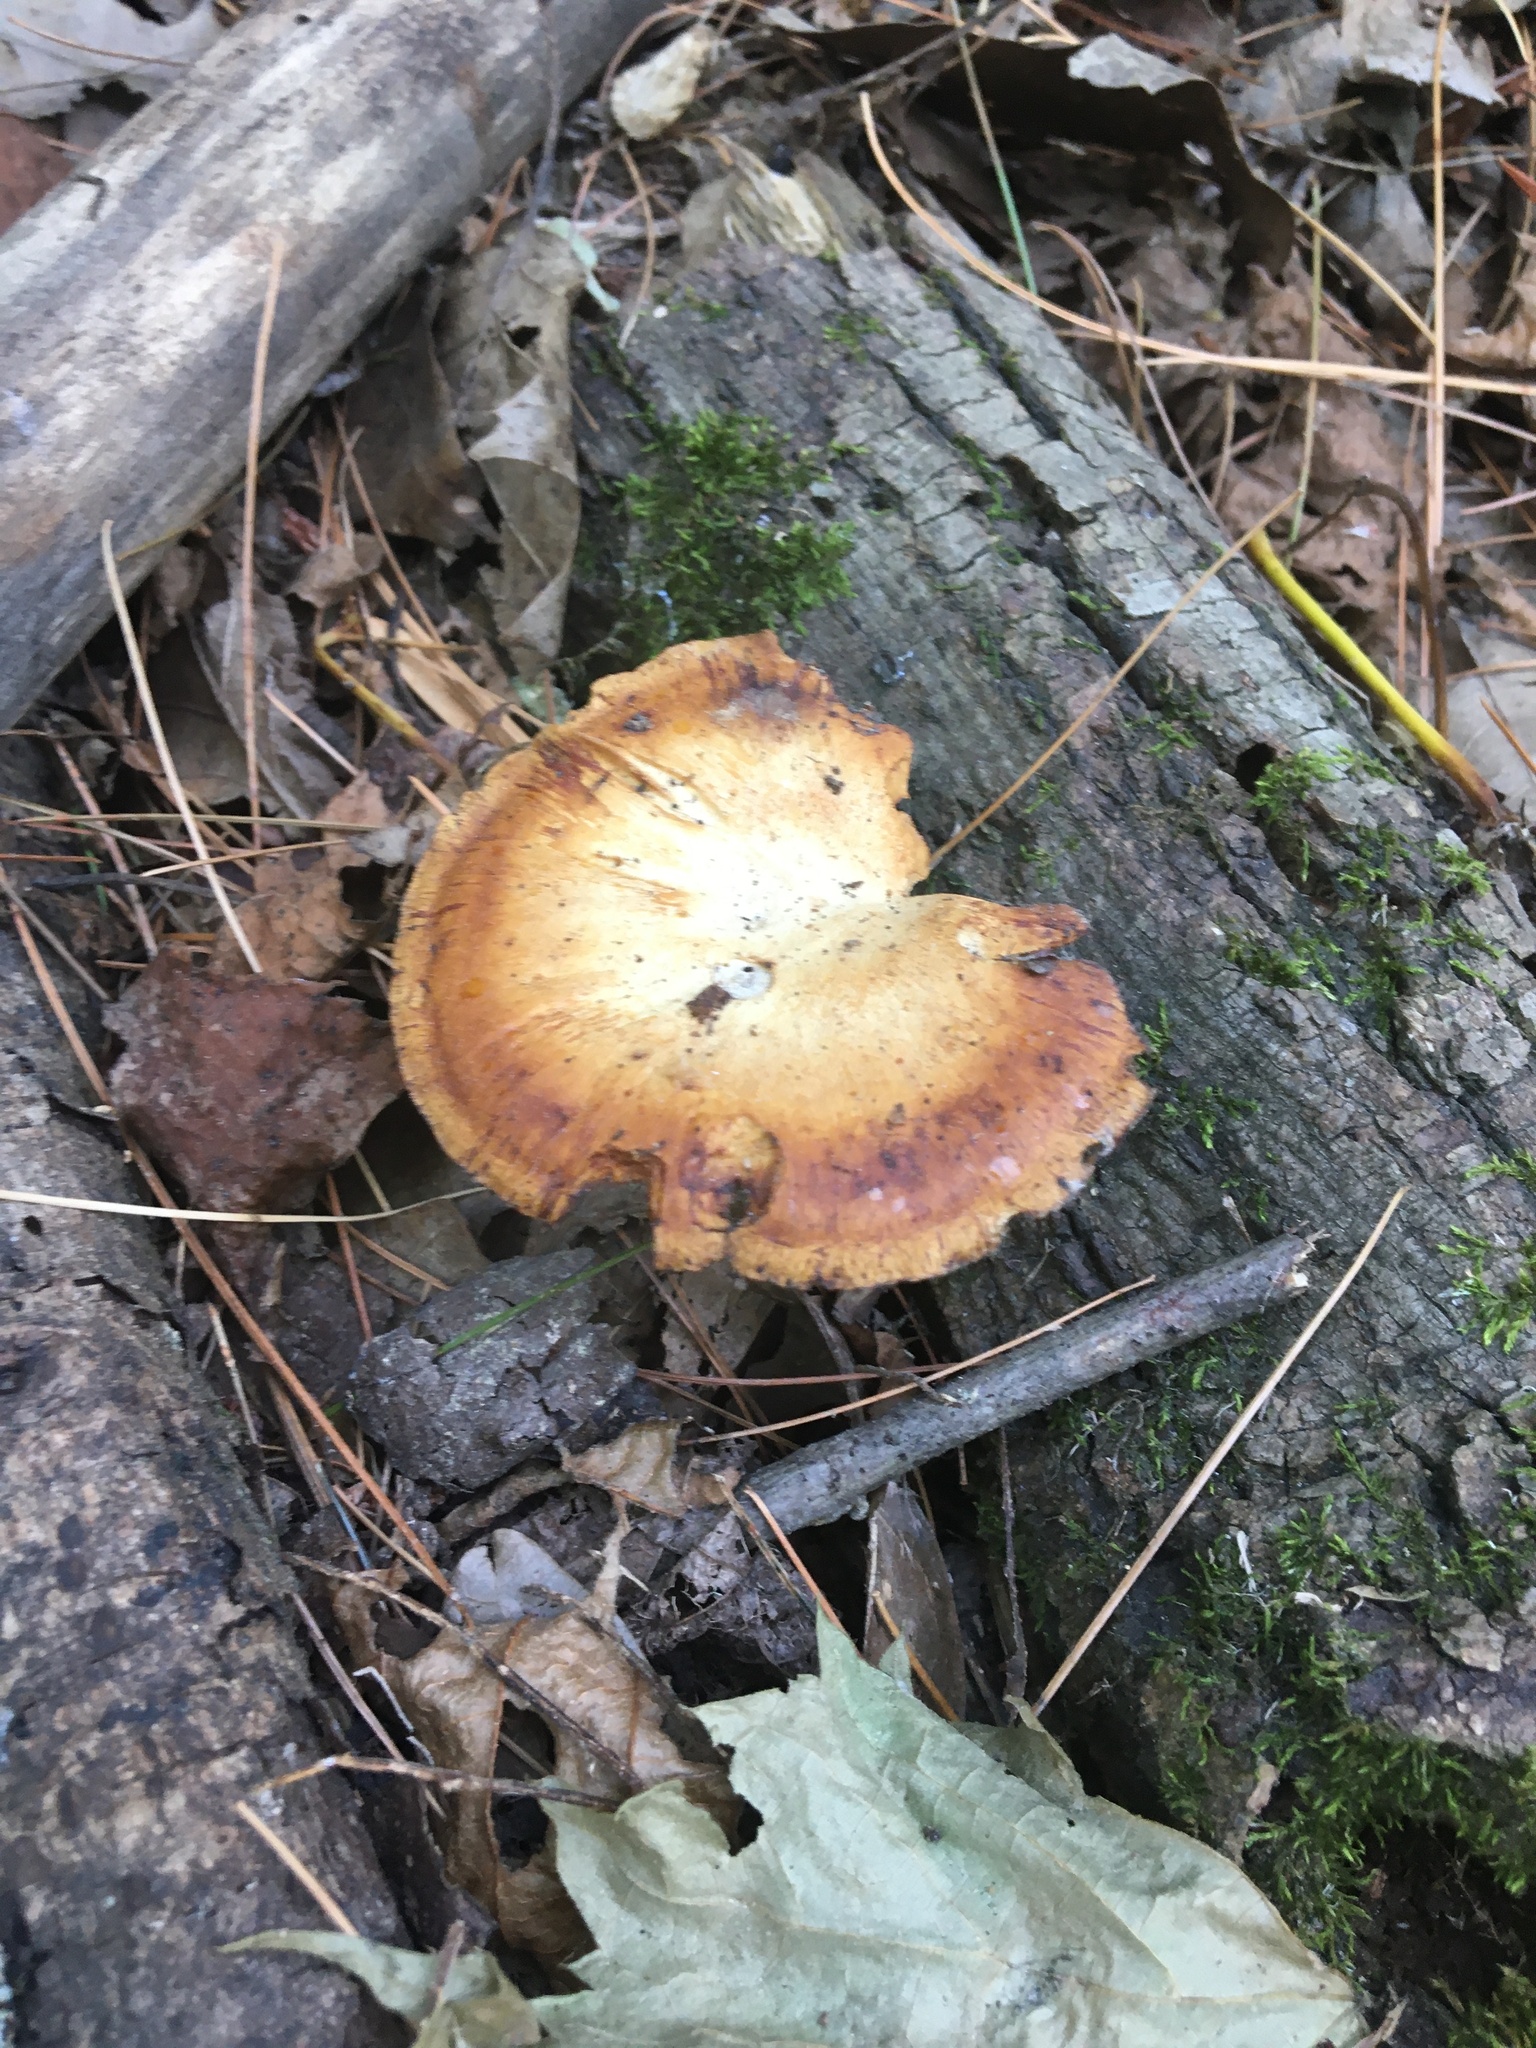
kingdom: Fungi
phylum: Basidiomycota
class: Agaricomycetes
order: Polyporales
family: Polyporaceae
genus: Cerioporus
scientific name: Cerioporus leptocephalus
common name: Blackfoot polypore
